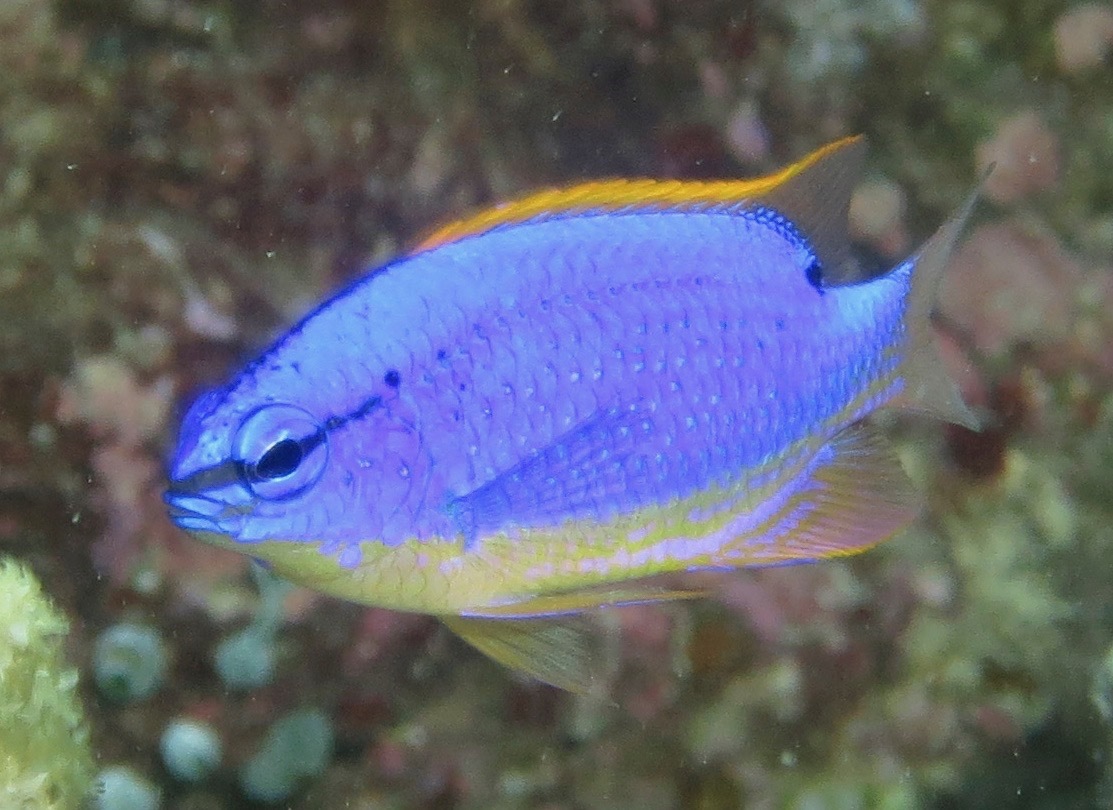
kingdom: Animalia
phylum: Chordata
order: Perciformes
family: Pomacentridae
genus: Chrysiptera
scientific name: Chrysiptera taupou
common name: Fiji damsel
